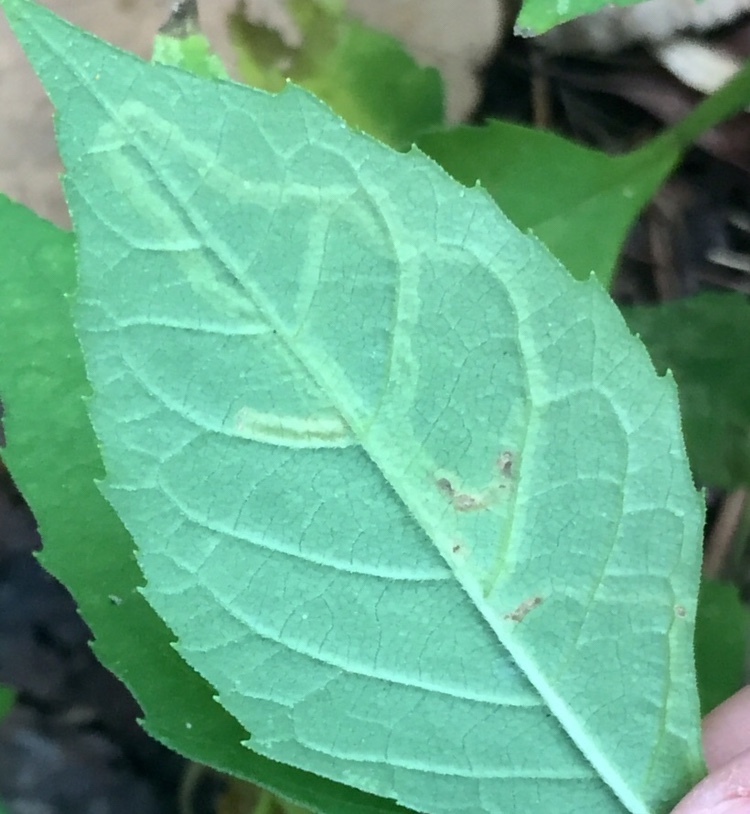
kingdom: Animalia
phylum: Arthropoda
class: Insecta
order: Diptera
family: Agromyzidae
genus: Liriomyza
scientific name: Liriomyza arctii
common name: Burdock leafminer
